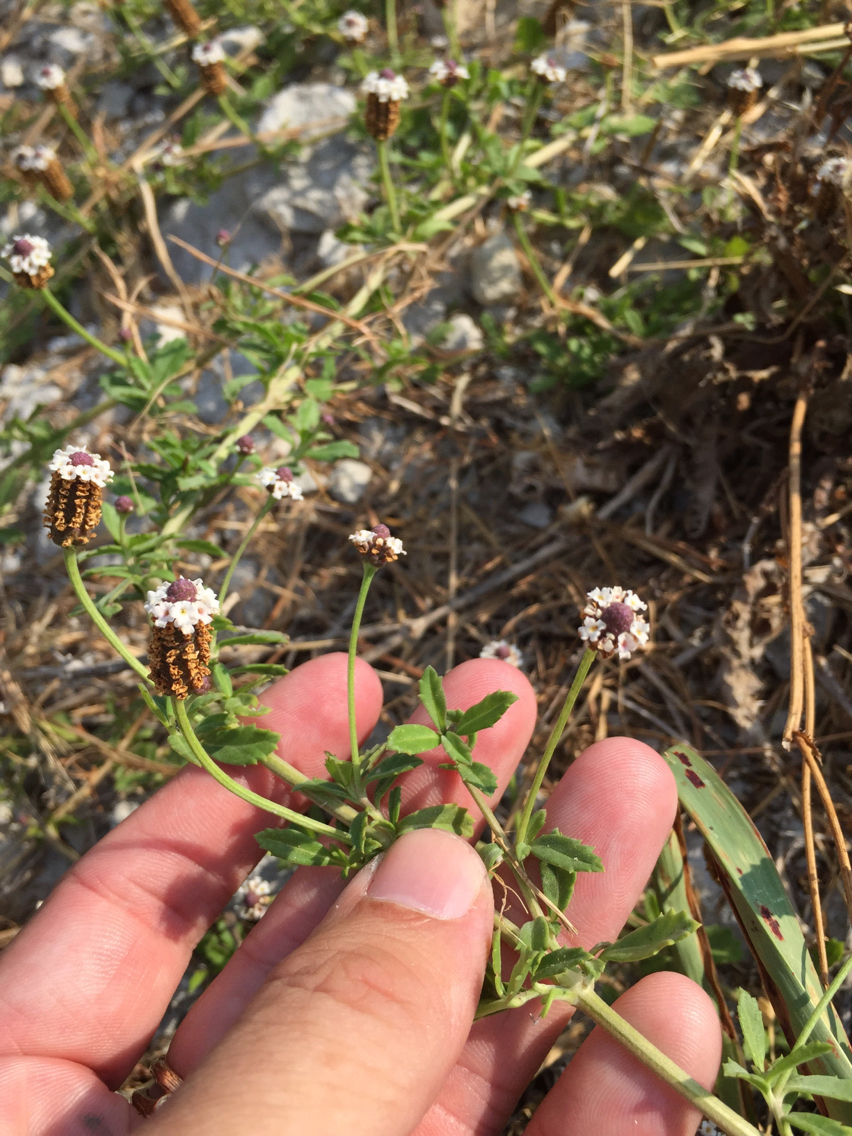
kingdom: Plantae
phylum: Tracheophyta
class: Magnoliopsida
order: Lamiales
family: Verbenaceae
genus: Phyla
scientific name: Phyla nodiflora
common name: Frogfruit
